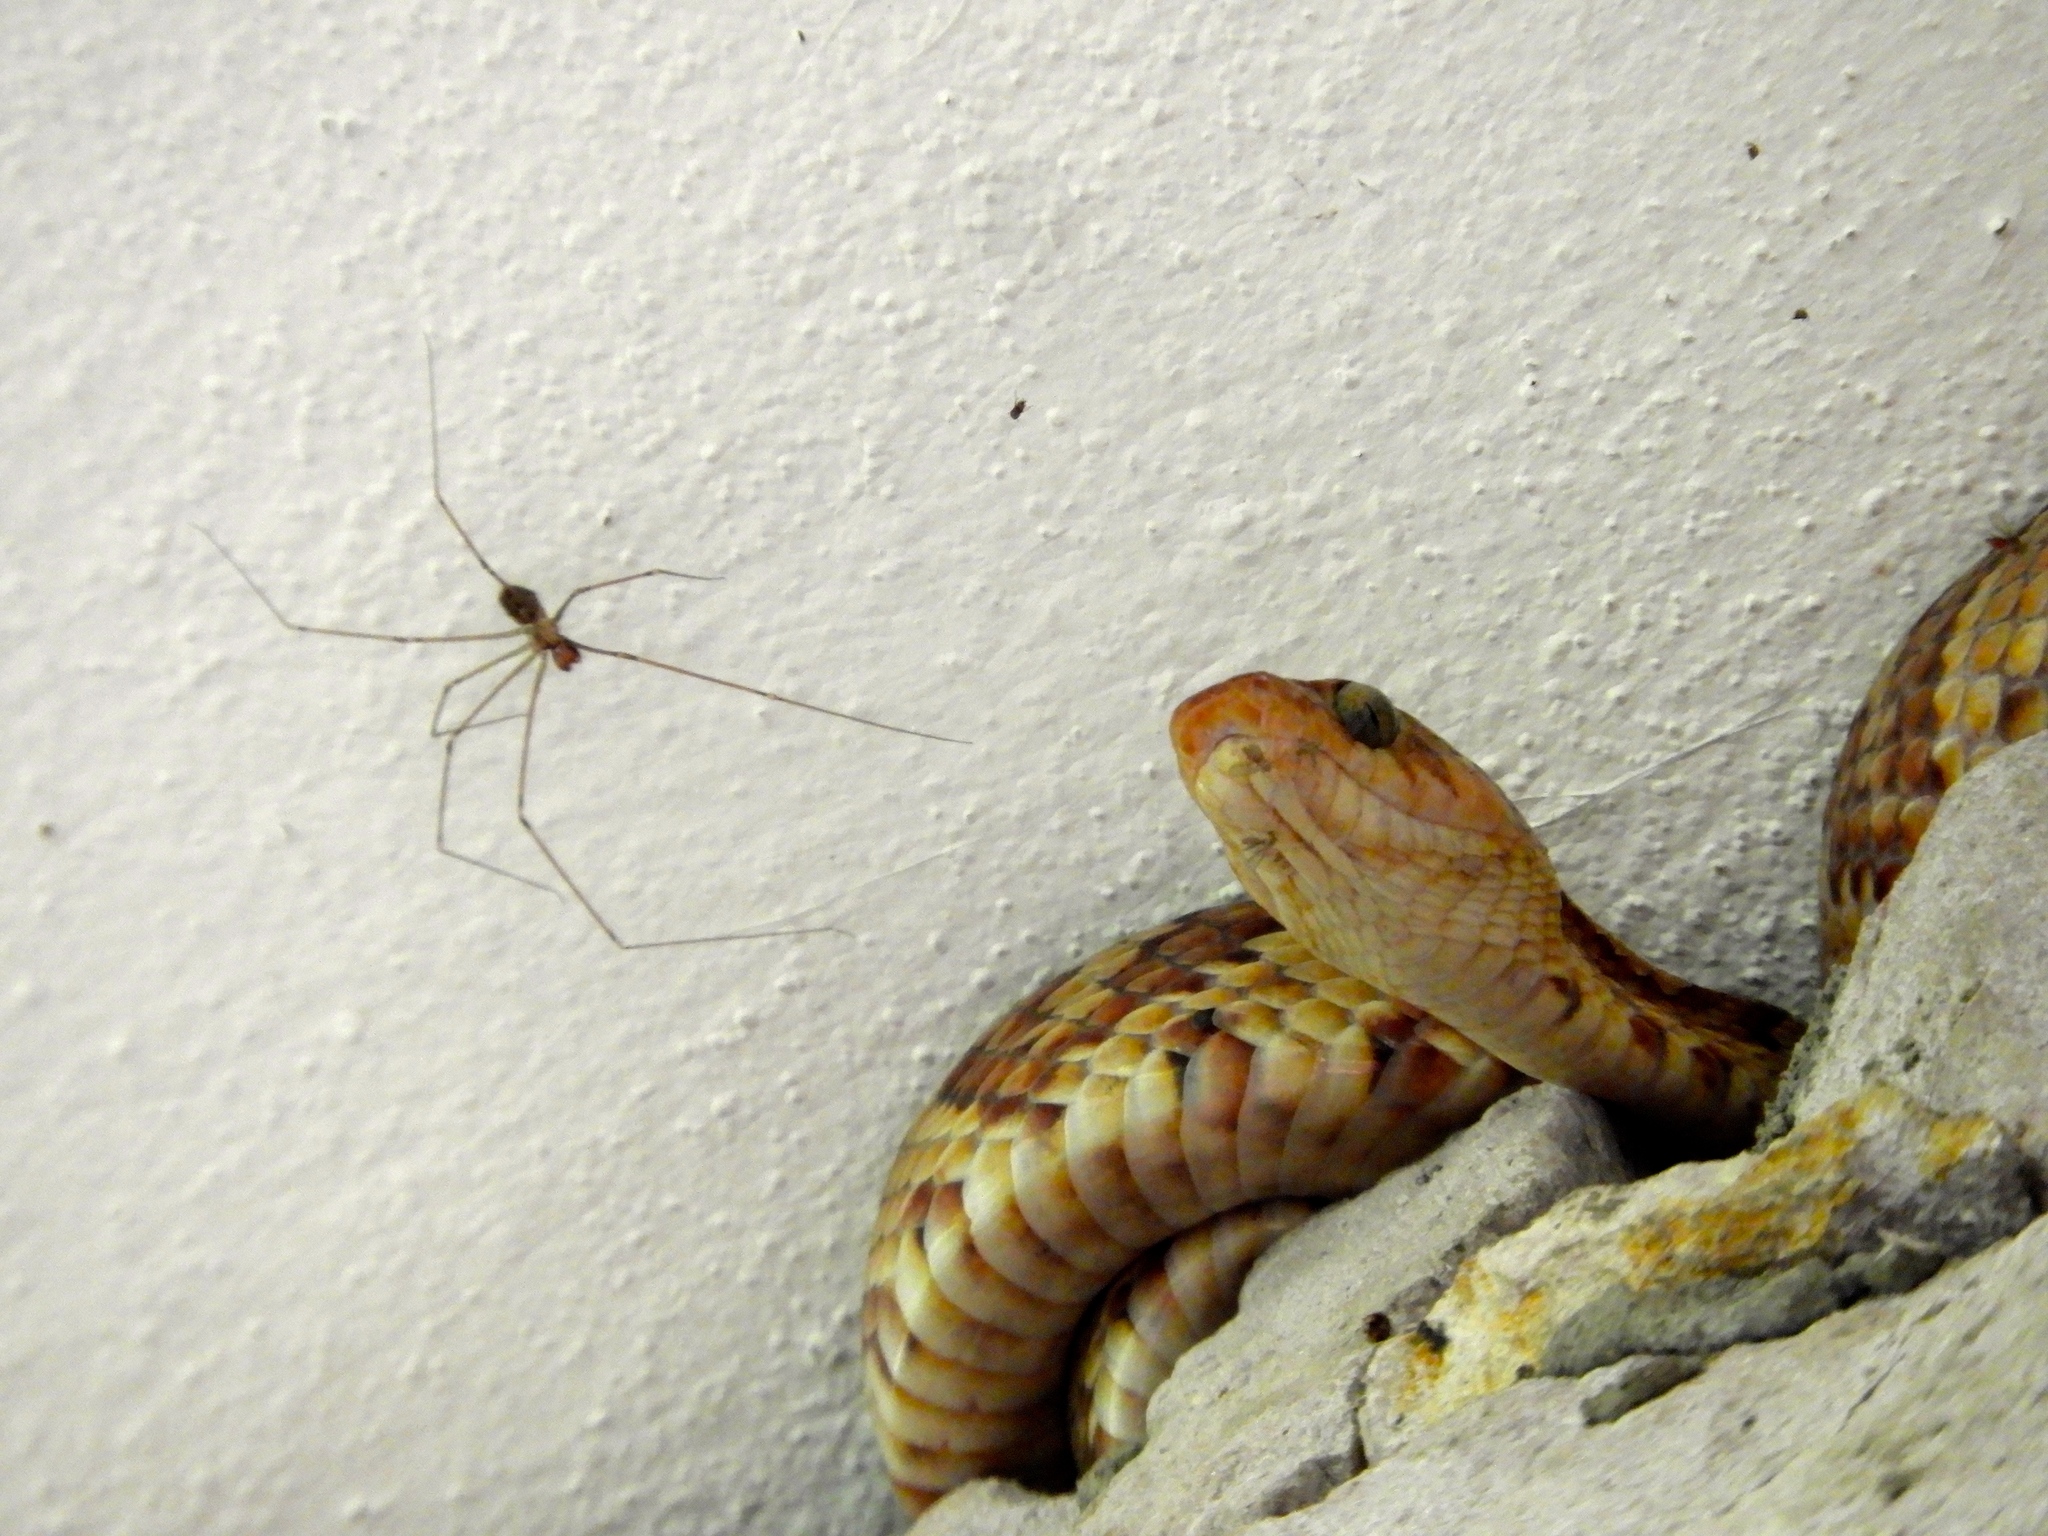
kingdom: Animalia
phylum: Chordata
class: Squamata
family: Colubridae
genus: Trimorphodon
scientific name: Trimorphodon paucimaculatus
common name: Sinaloan lyresnake
